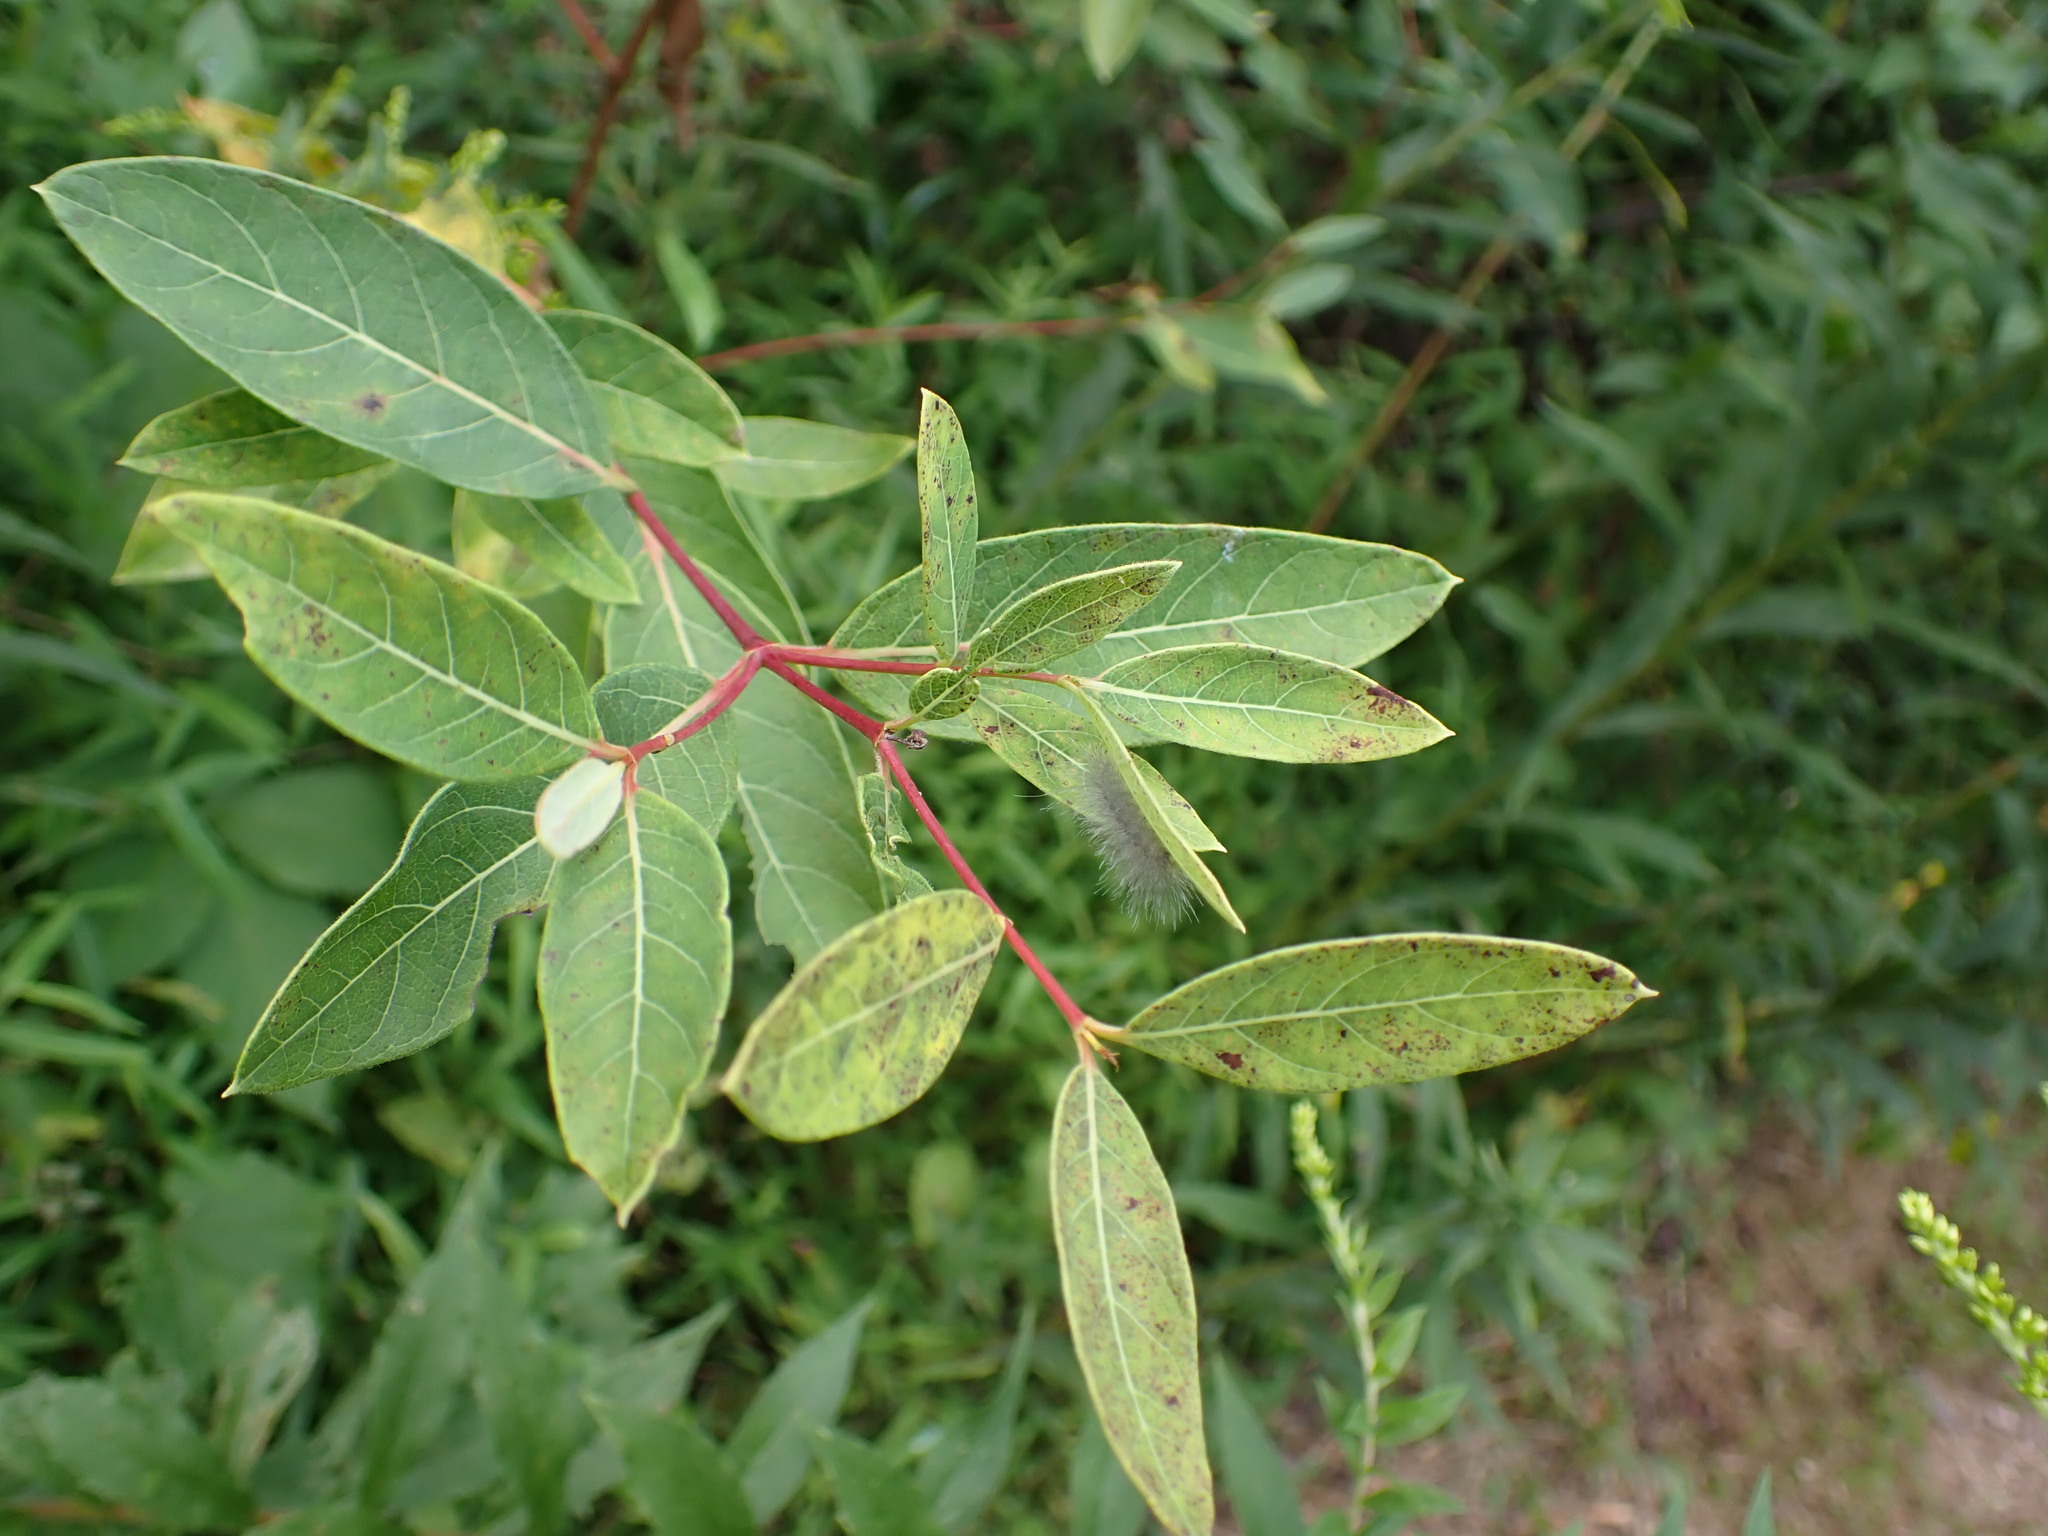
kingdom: Plantae
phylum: Tracheophyta
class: Magnoliopsida
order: Gentianales
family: Apocynaceae
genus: Apocynum
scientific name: Apocynum cannabinum
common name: Hemp dogbane
